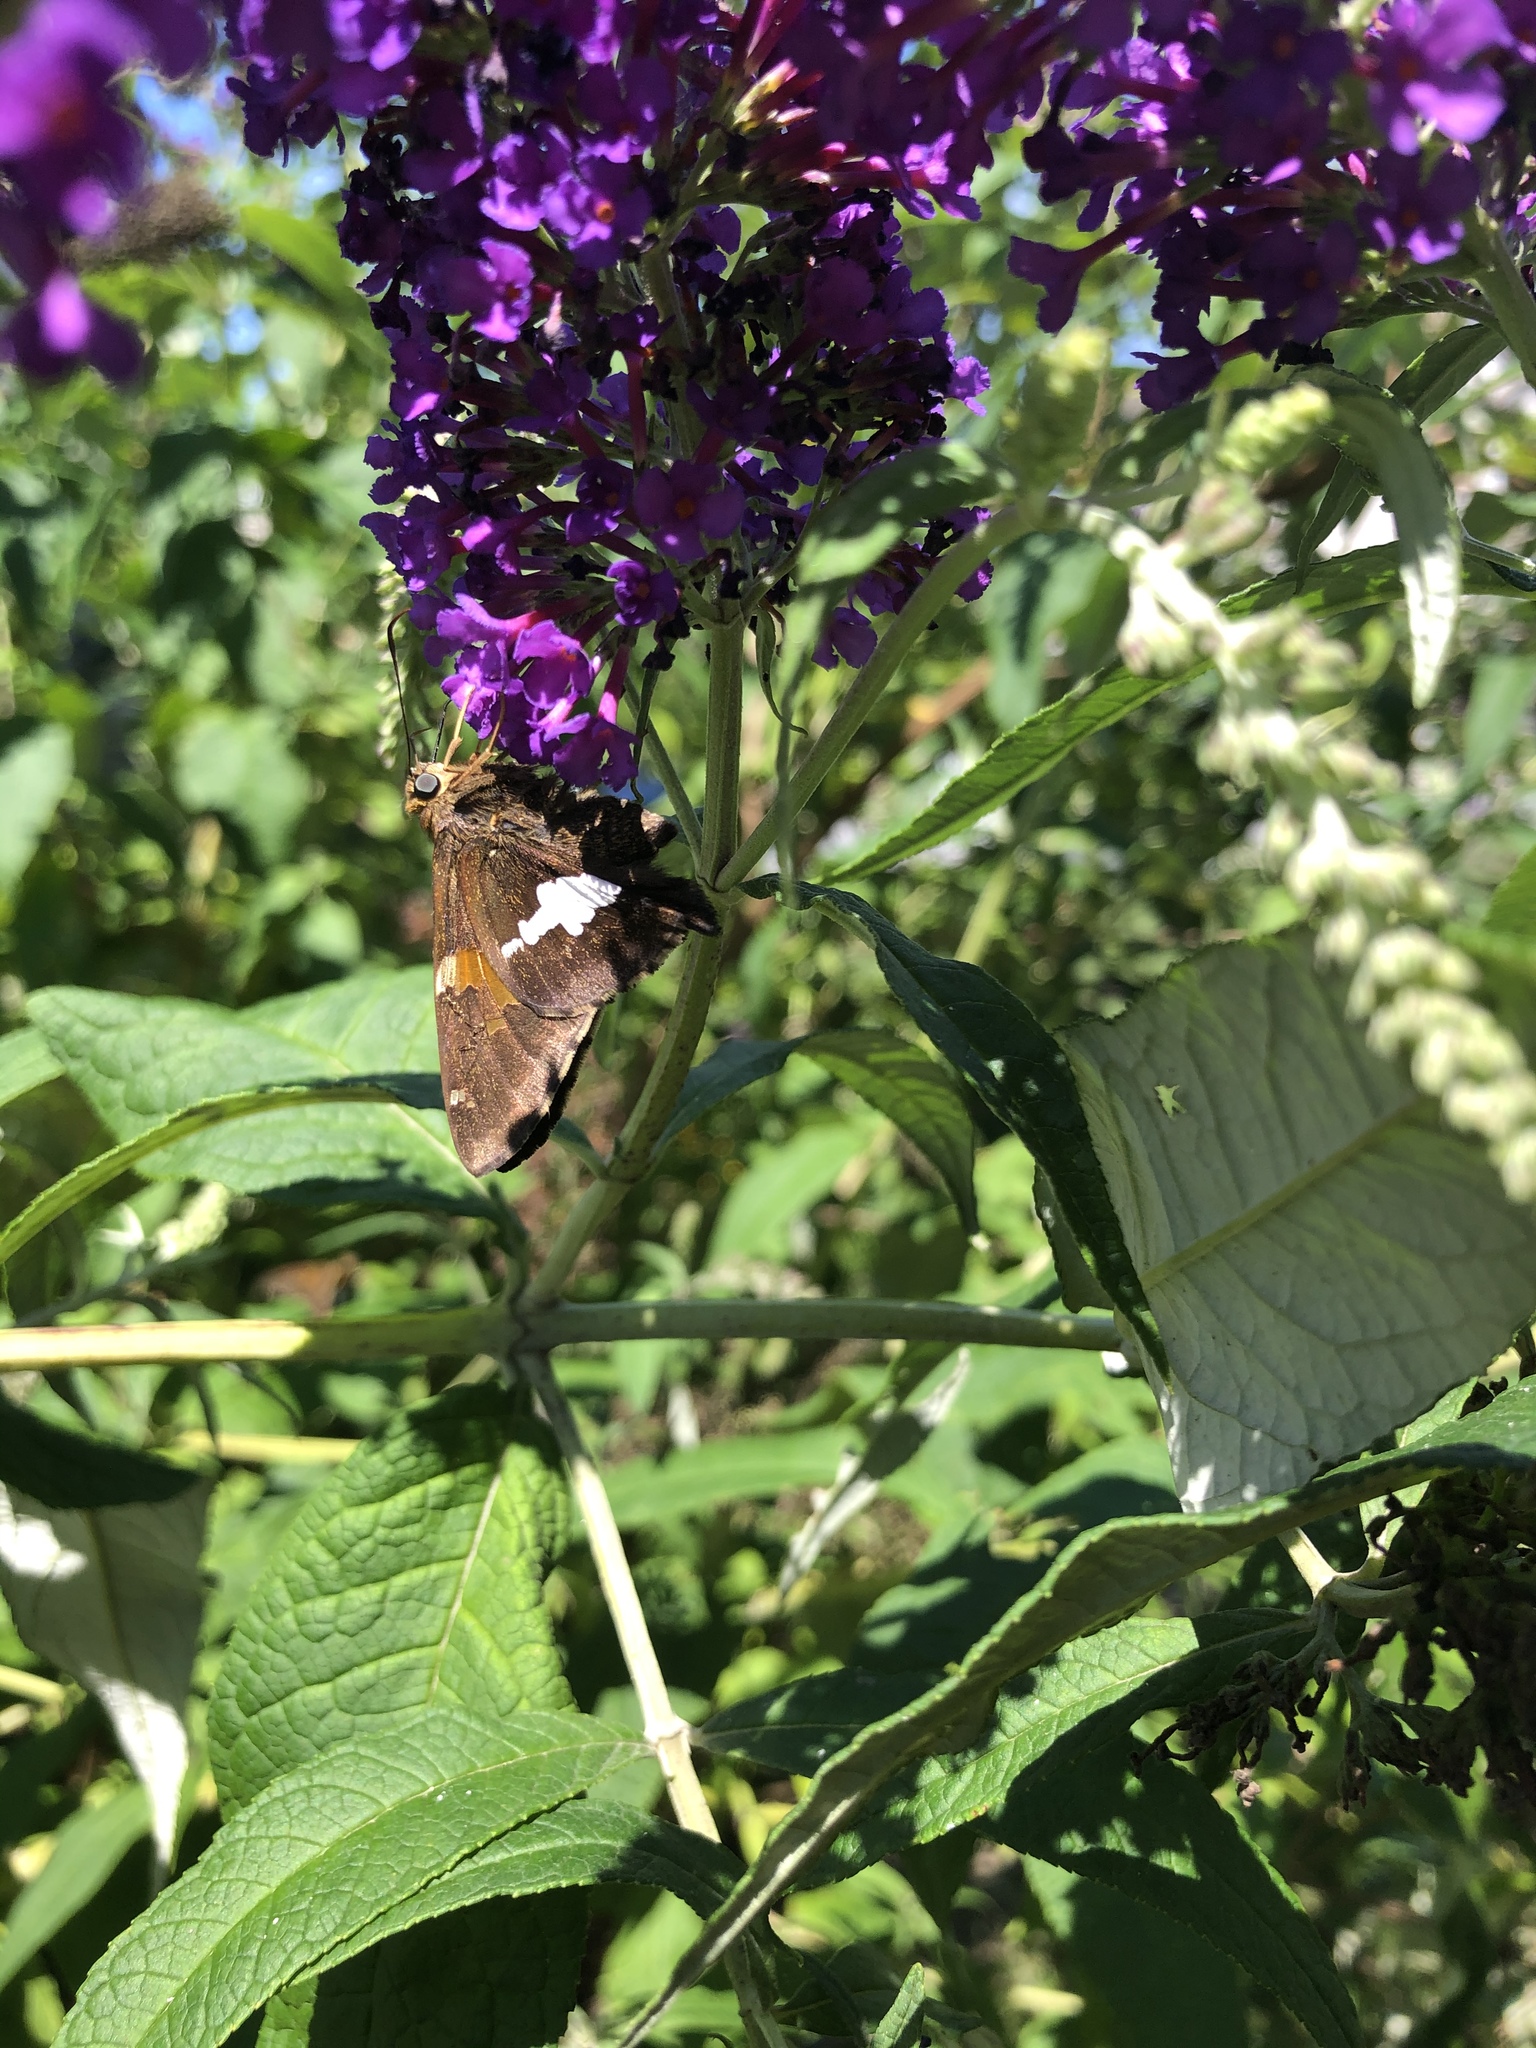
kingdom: Animalia
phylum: Arthropoda
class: Insecta
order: Lepidoptera
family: Hesperiidae
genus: Epargyreus
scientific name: Epargyreus clarus
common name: Silver-spotted skipper
